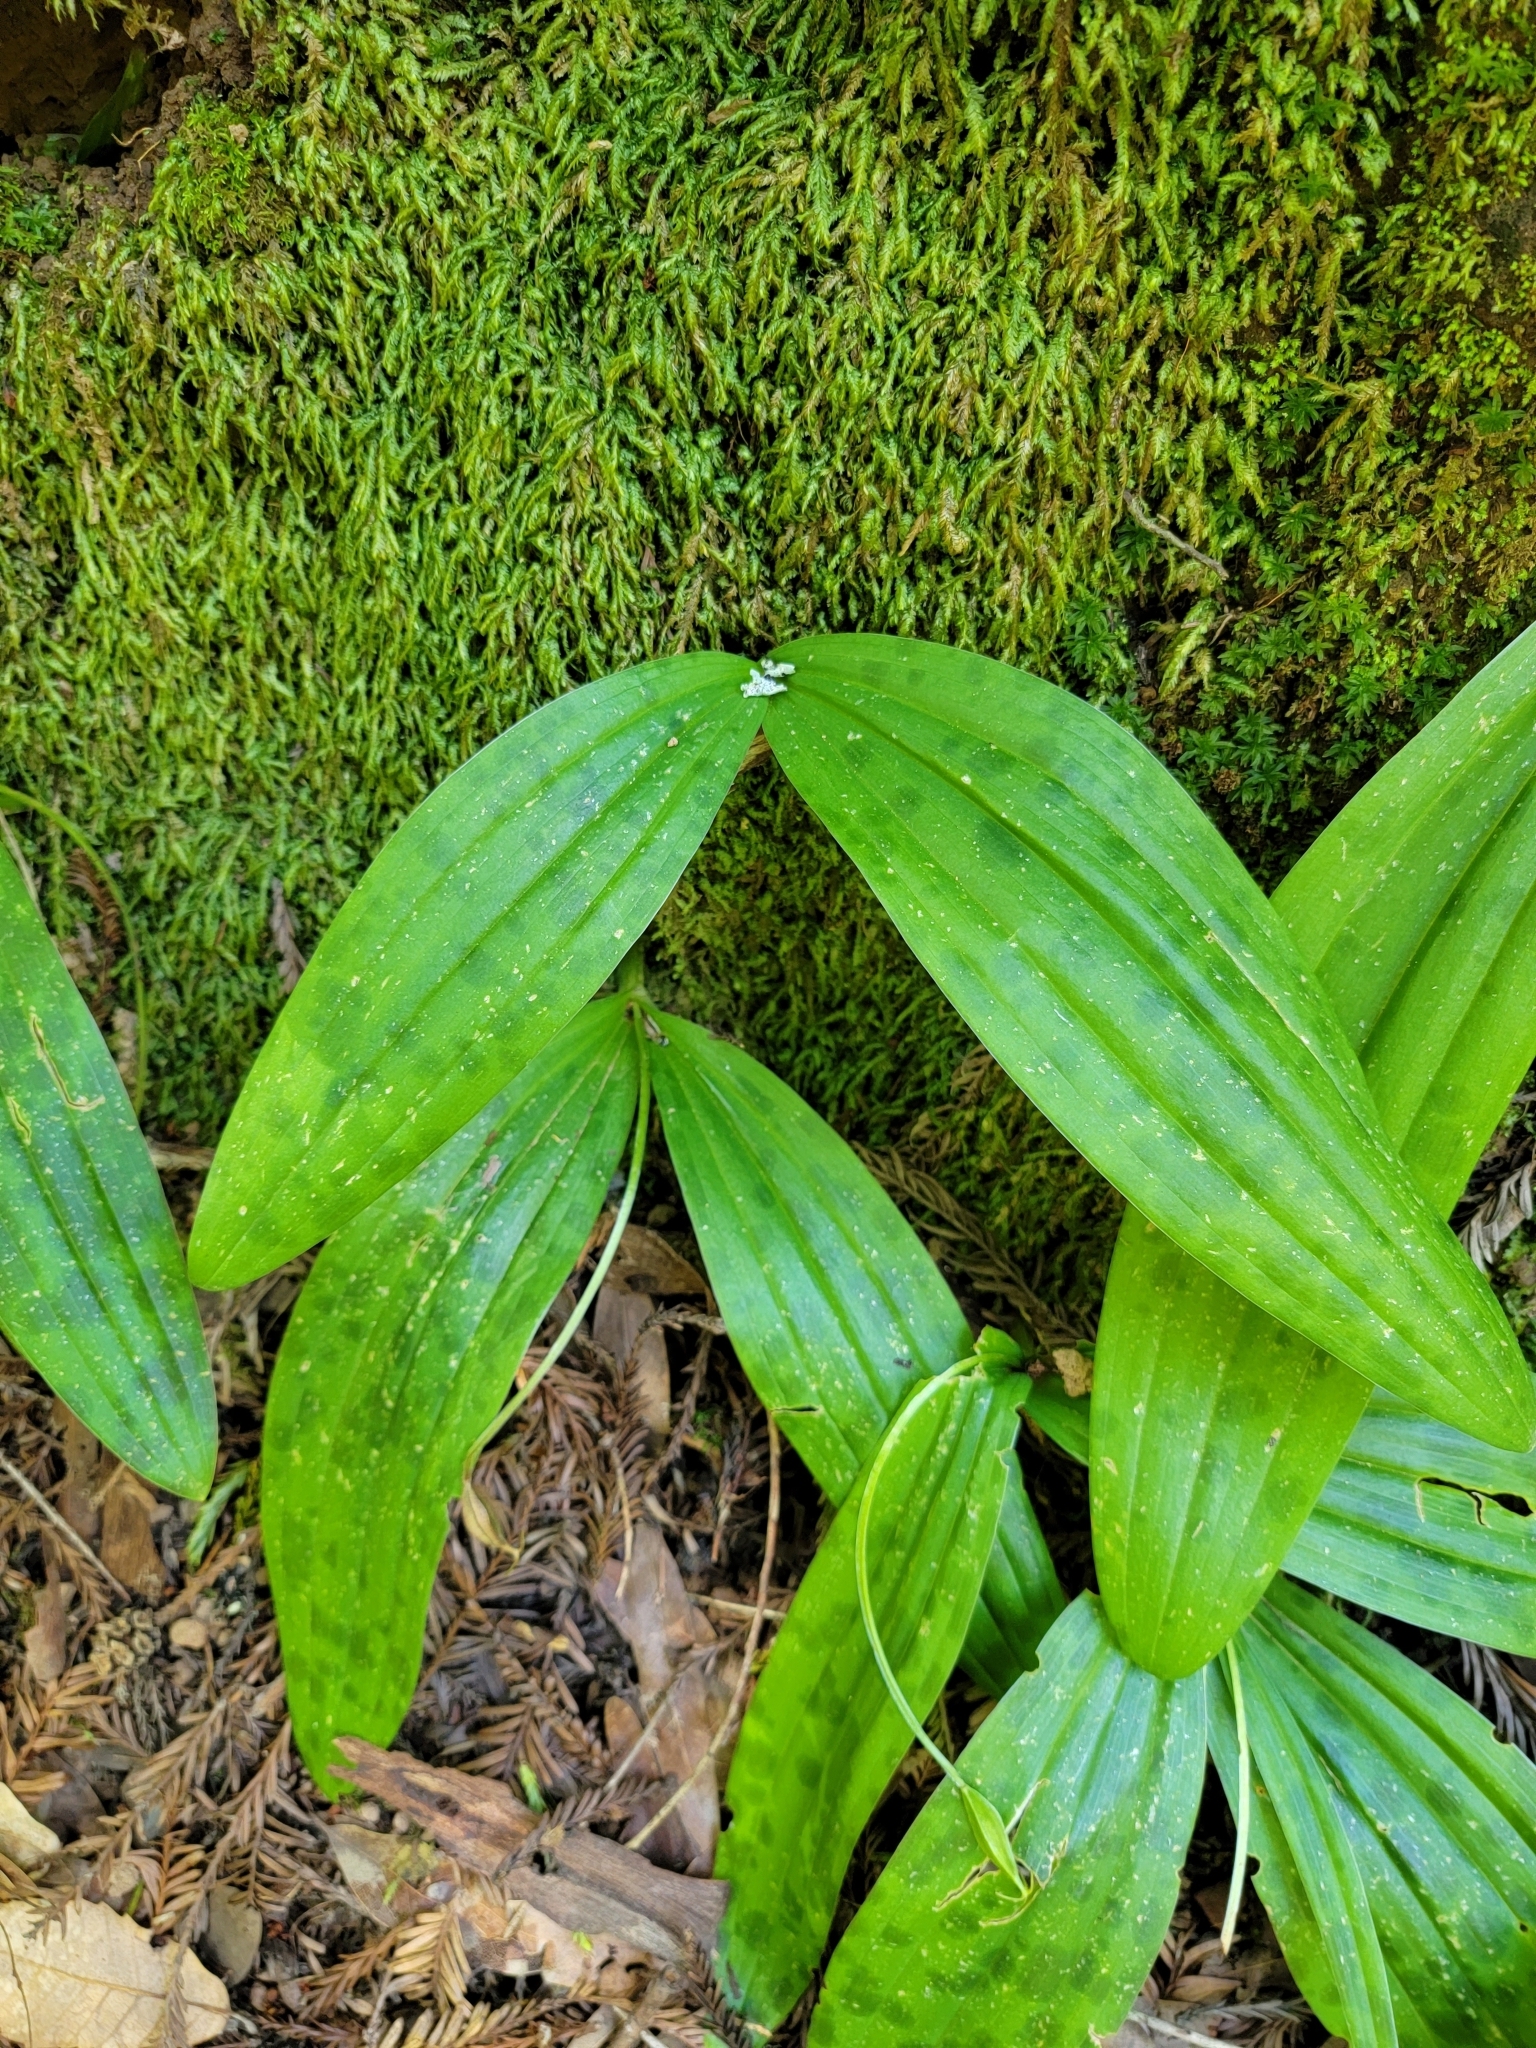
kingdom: Plantae
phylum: Tracheophyta
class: Liliopsida
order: Liliales
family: Liliaceae
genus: Scoliopus
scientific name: Scoliopus bigelovii
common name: Foetid adder's-tongue
